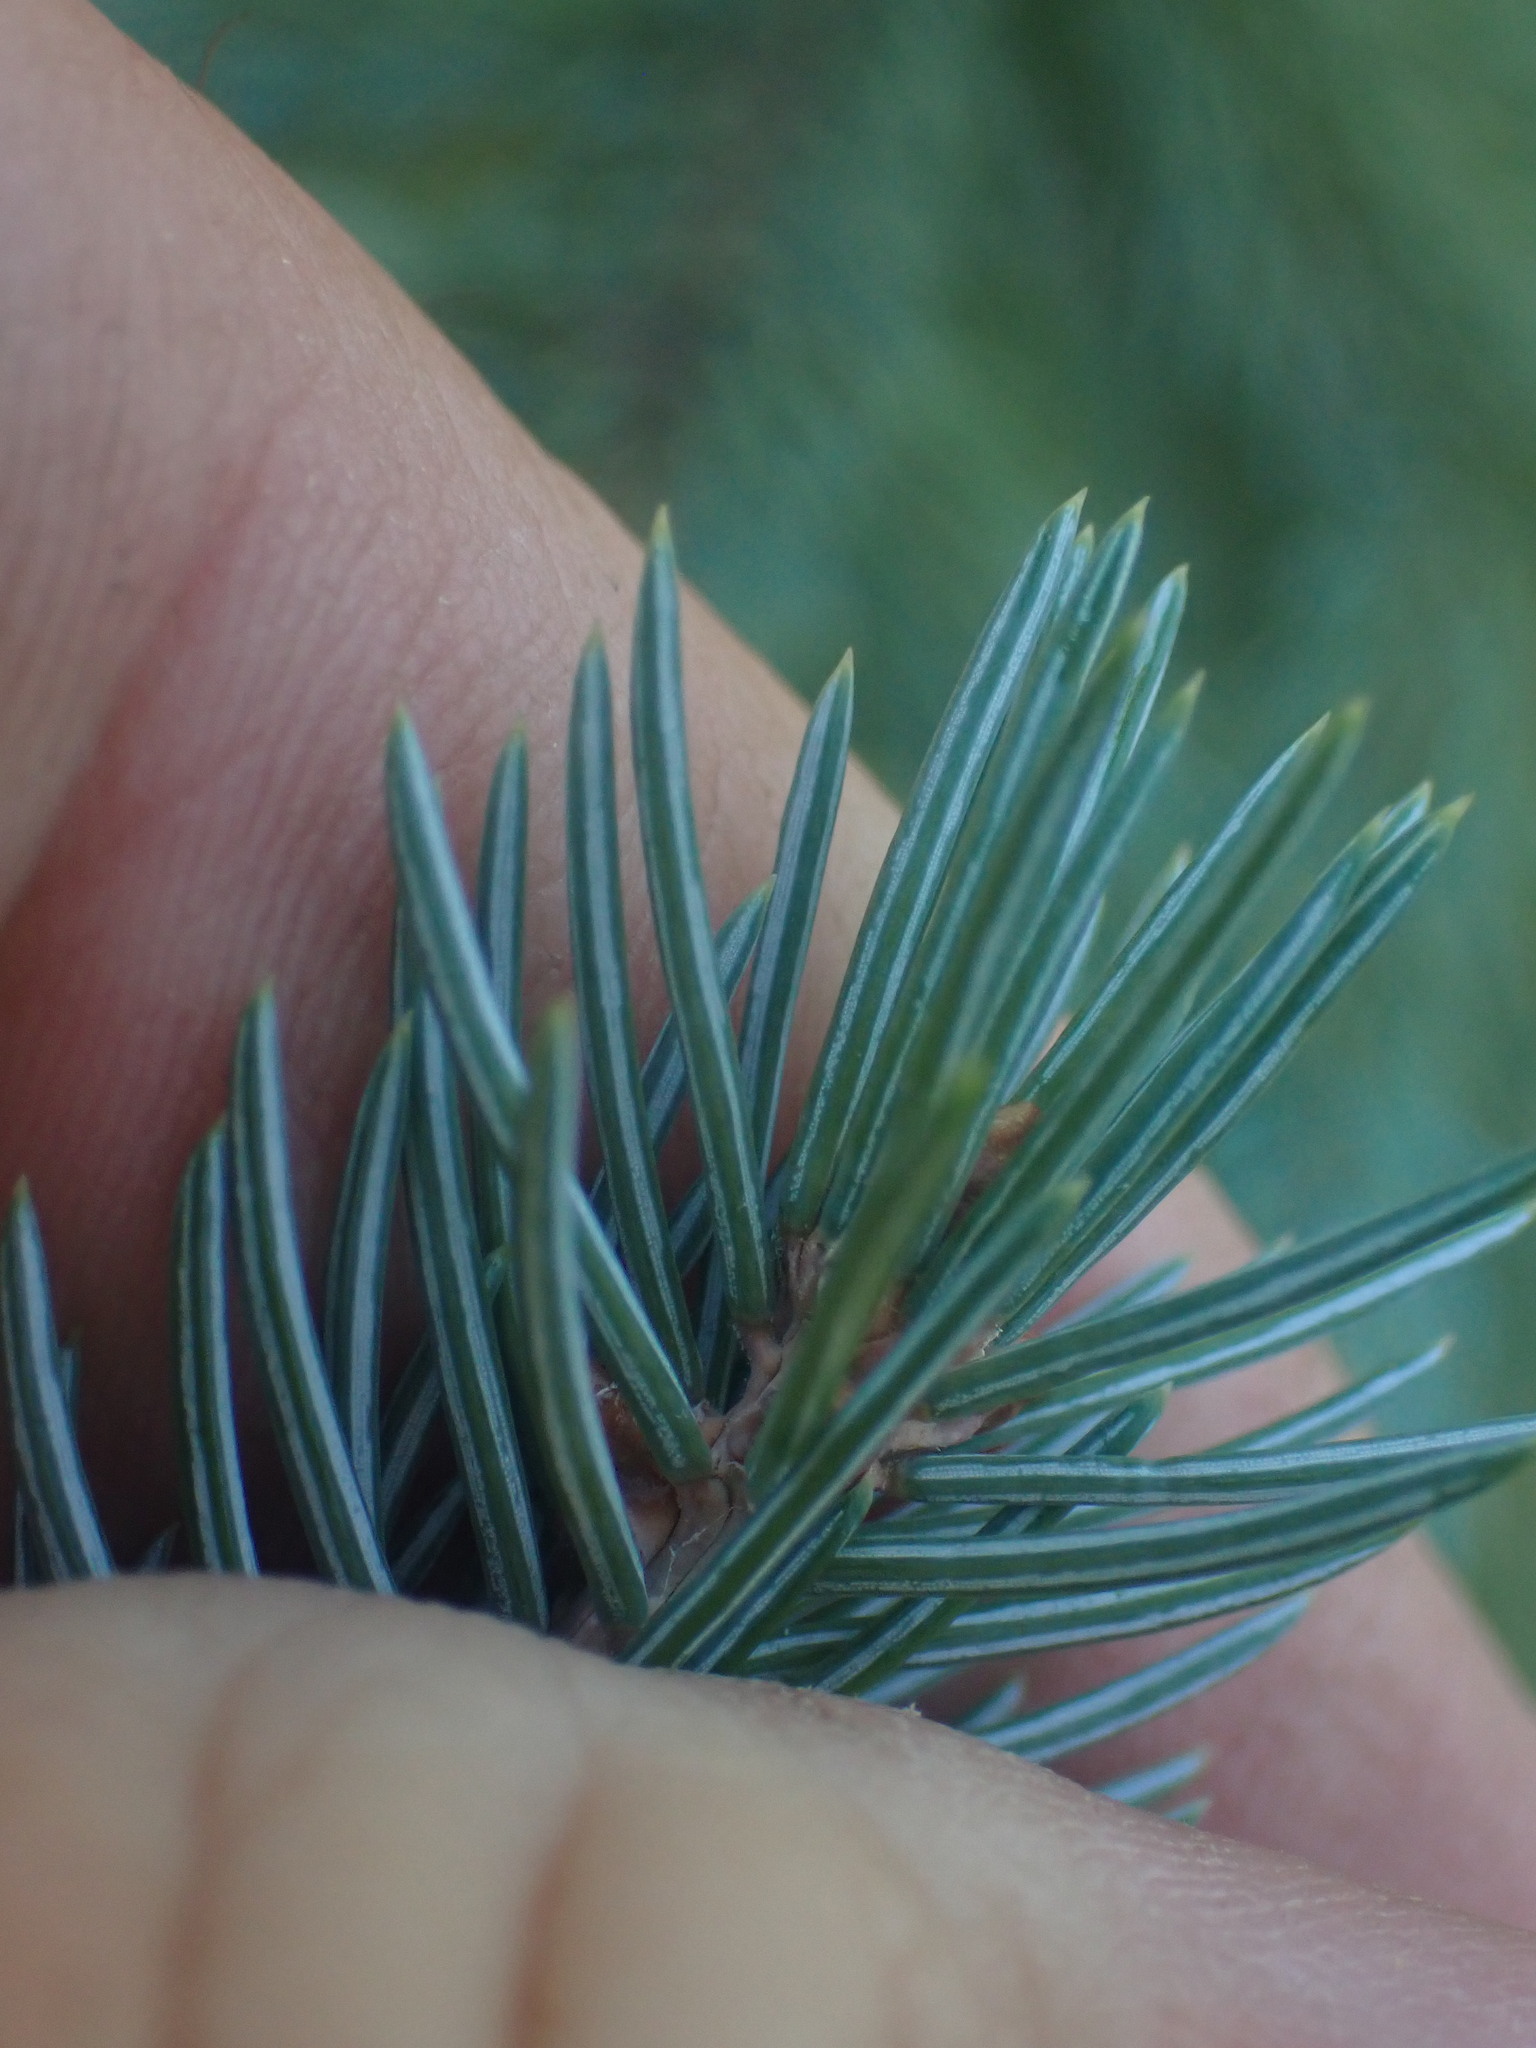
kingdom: Plantae
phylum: Tracheophyta
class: Pinopsida
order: Pinales
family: Pinaceae
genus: Picea
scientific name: Picea
